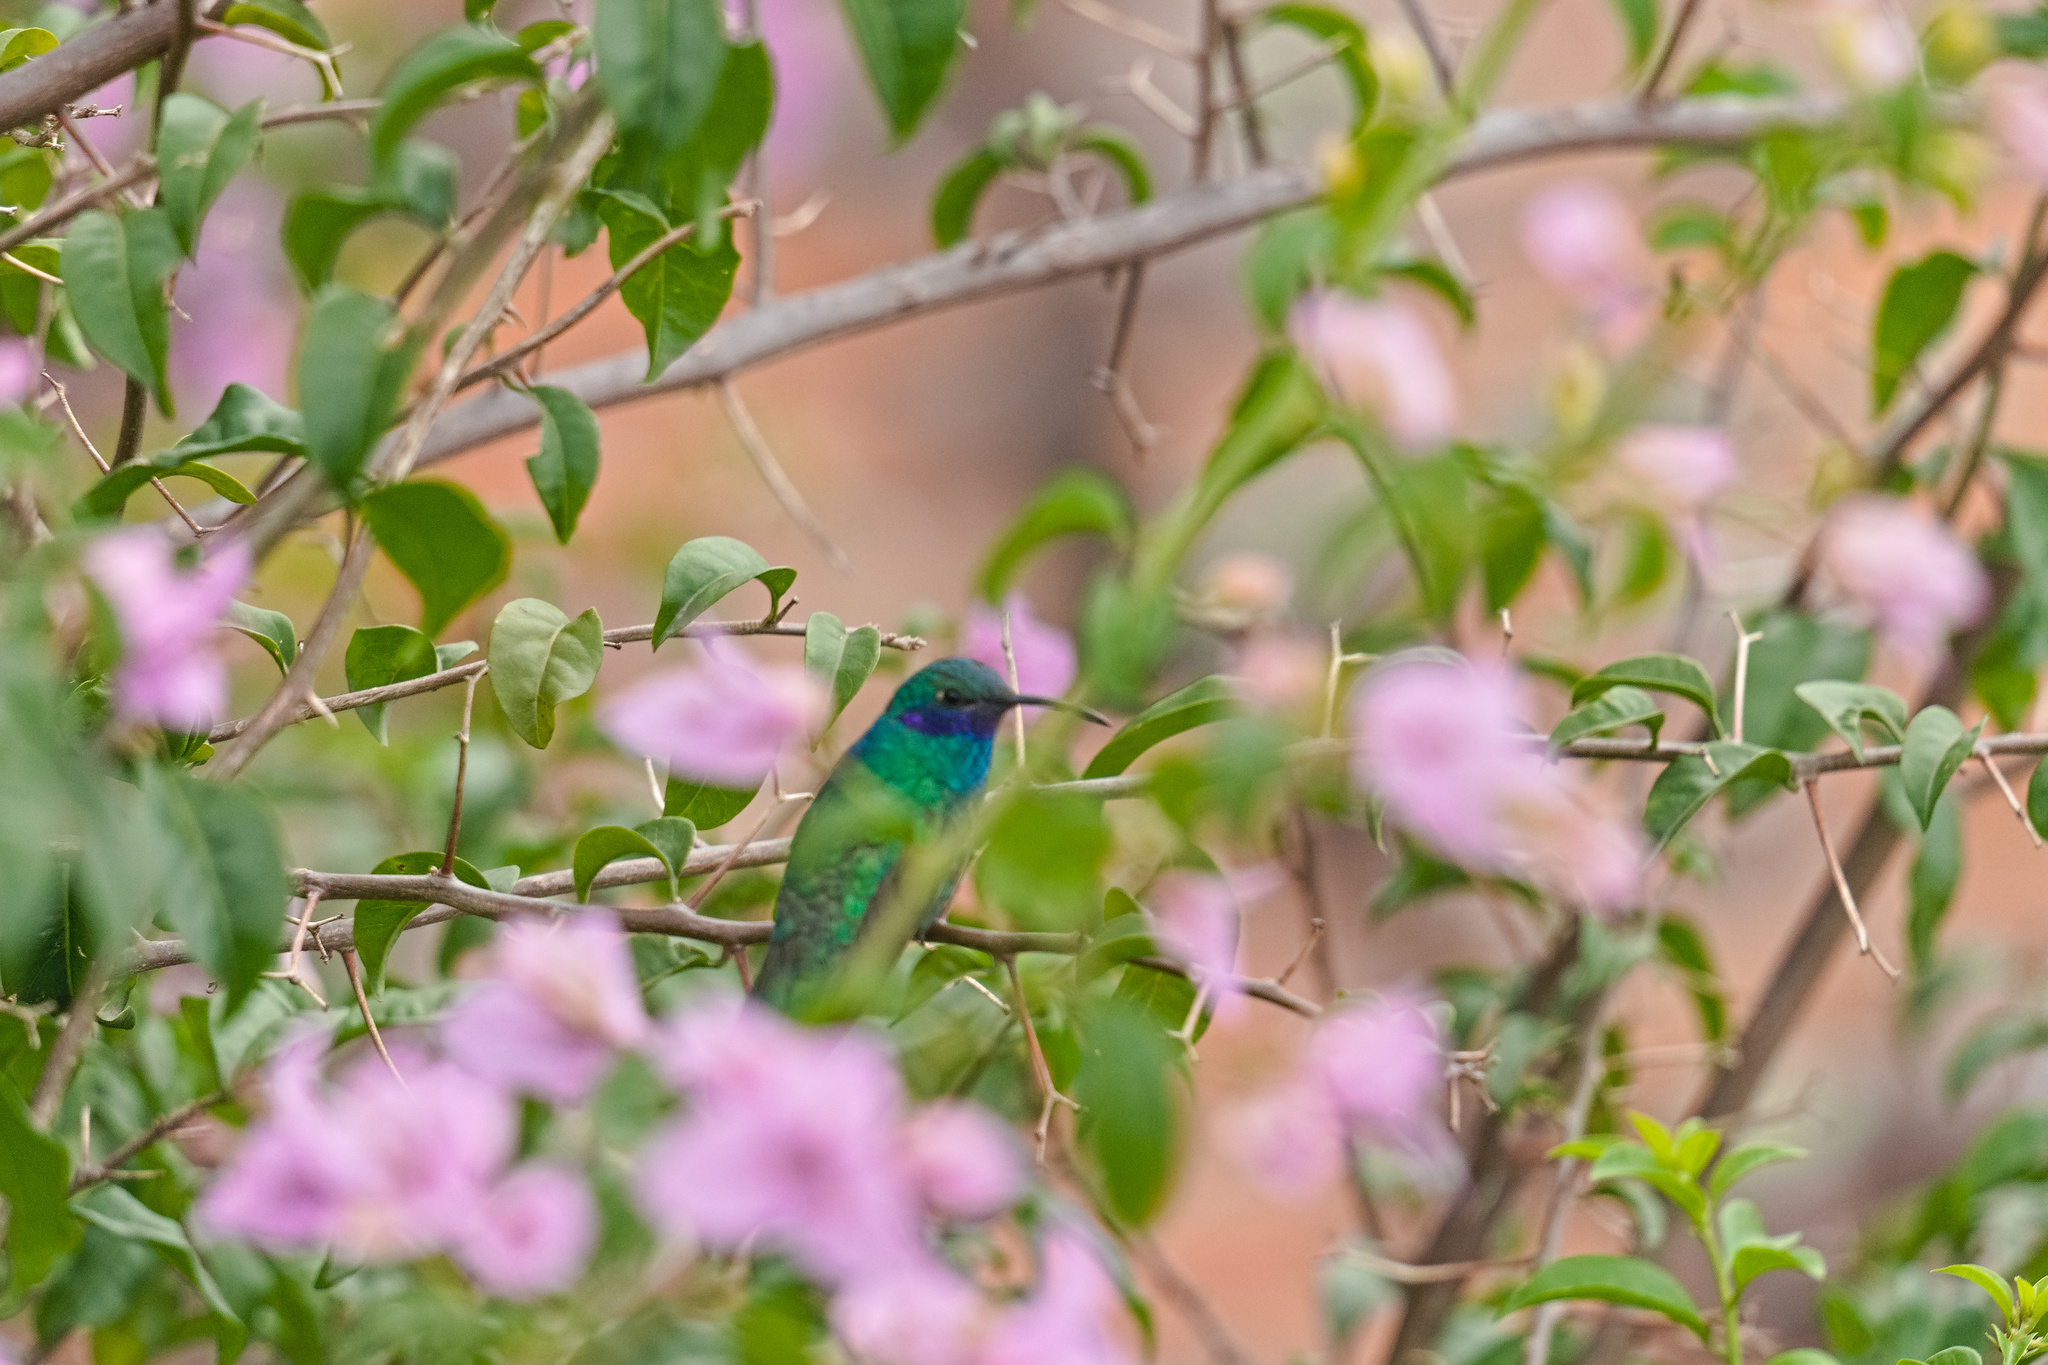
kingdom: Animalia
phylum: Chordata
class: Aves
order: Apodiformes
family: Trochilidae
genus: Colibri
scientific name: Colibri coruscans
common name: Sparkling violetear
